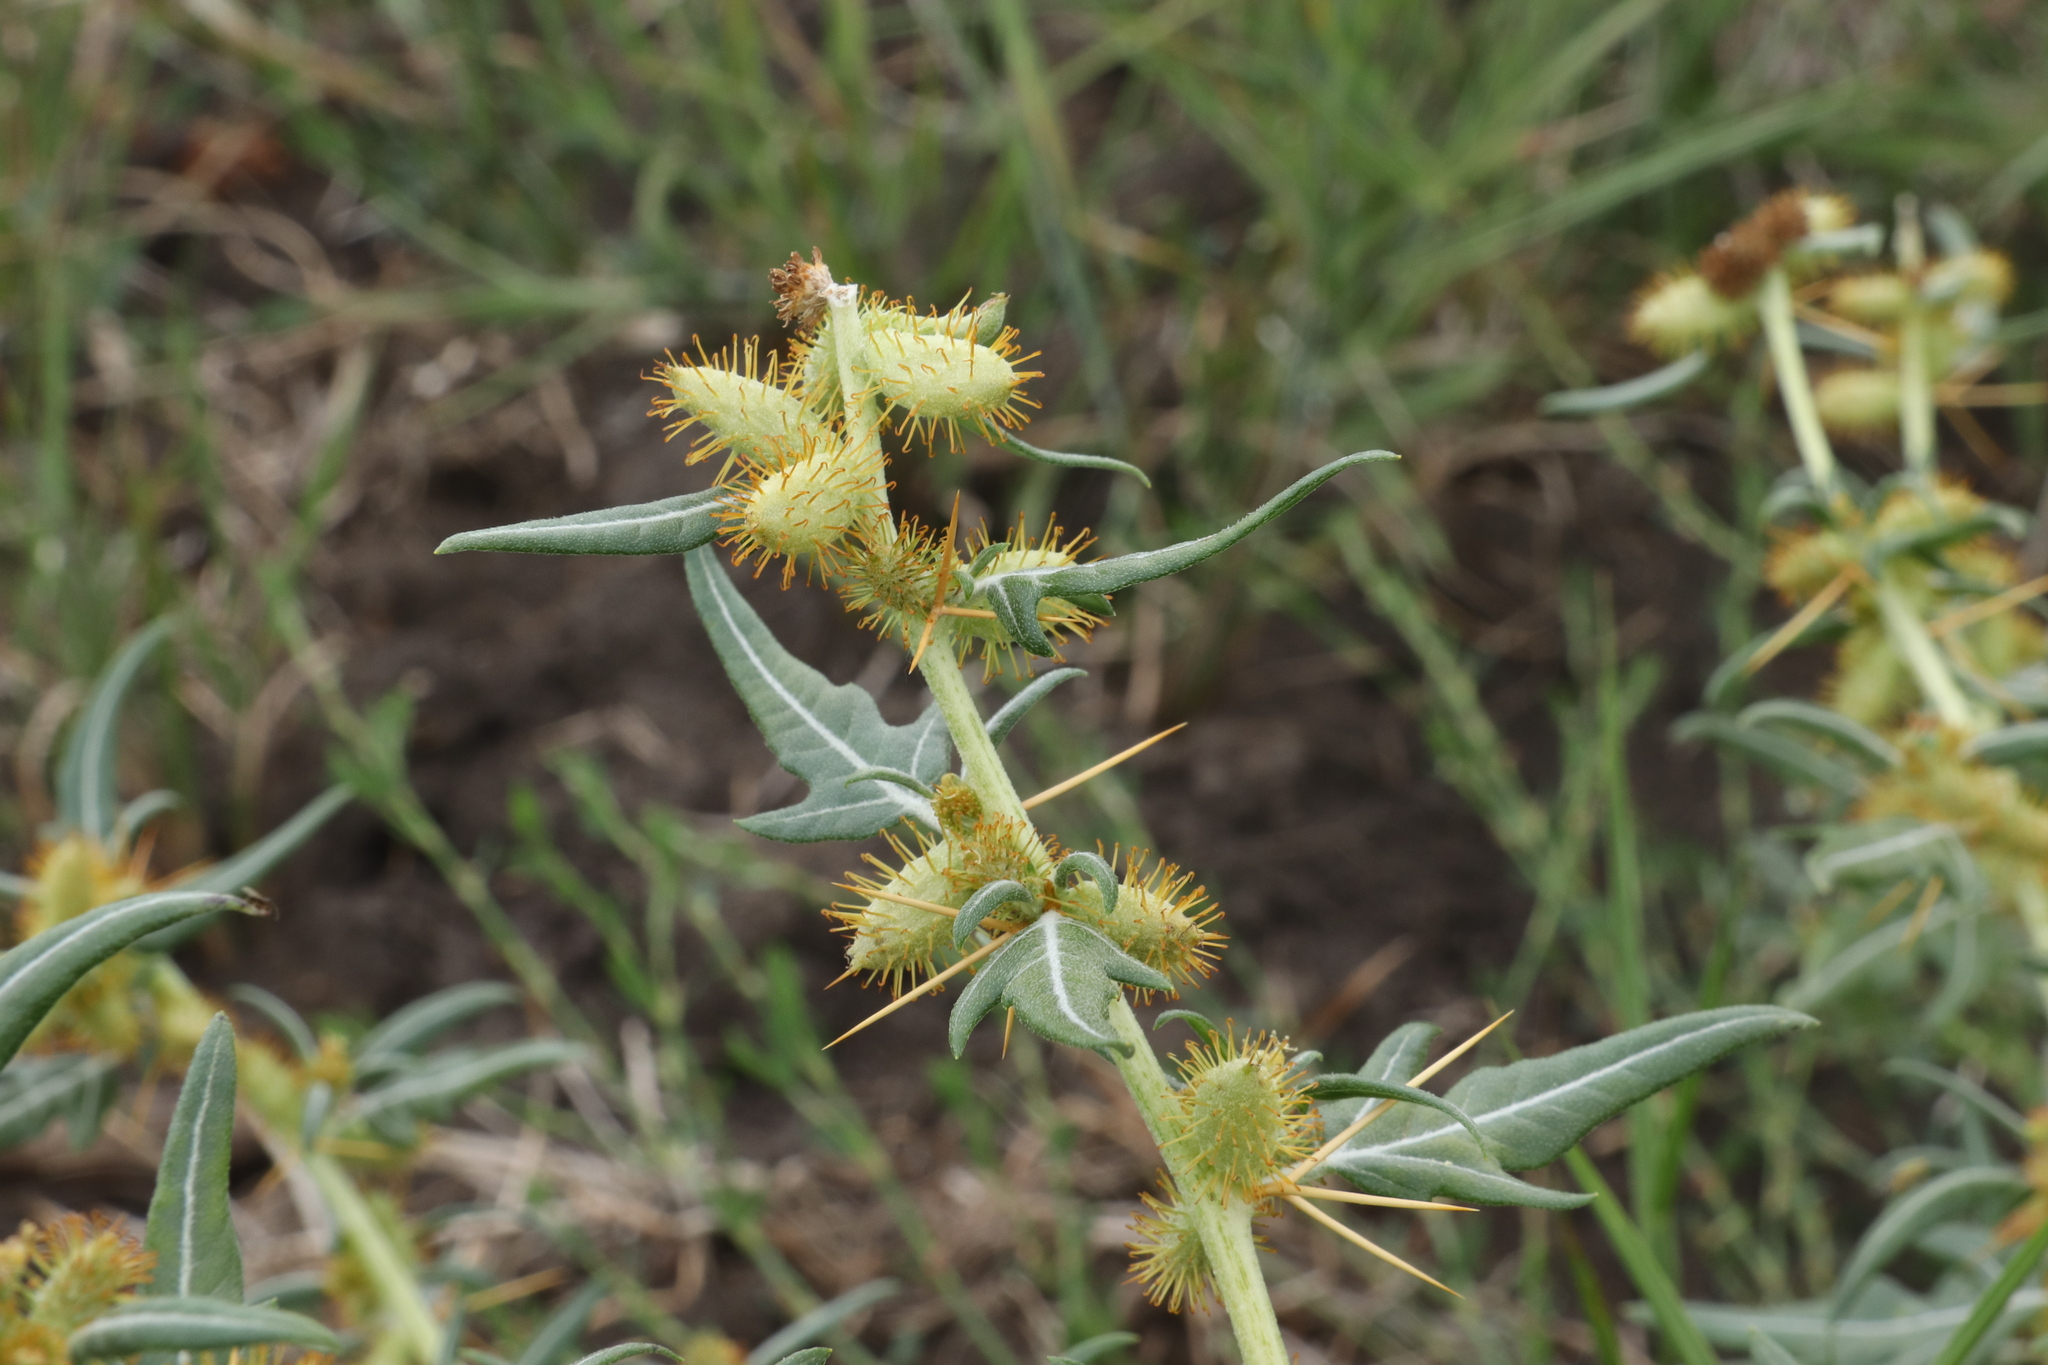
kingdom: Plantae
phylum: Tracheophyta
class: Magnoliopsida
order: Asterales
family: Asteraceae
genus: Xanthium
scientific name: Xanthium spinosum
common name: Spiny cocklebur
